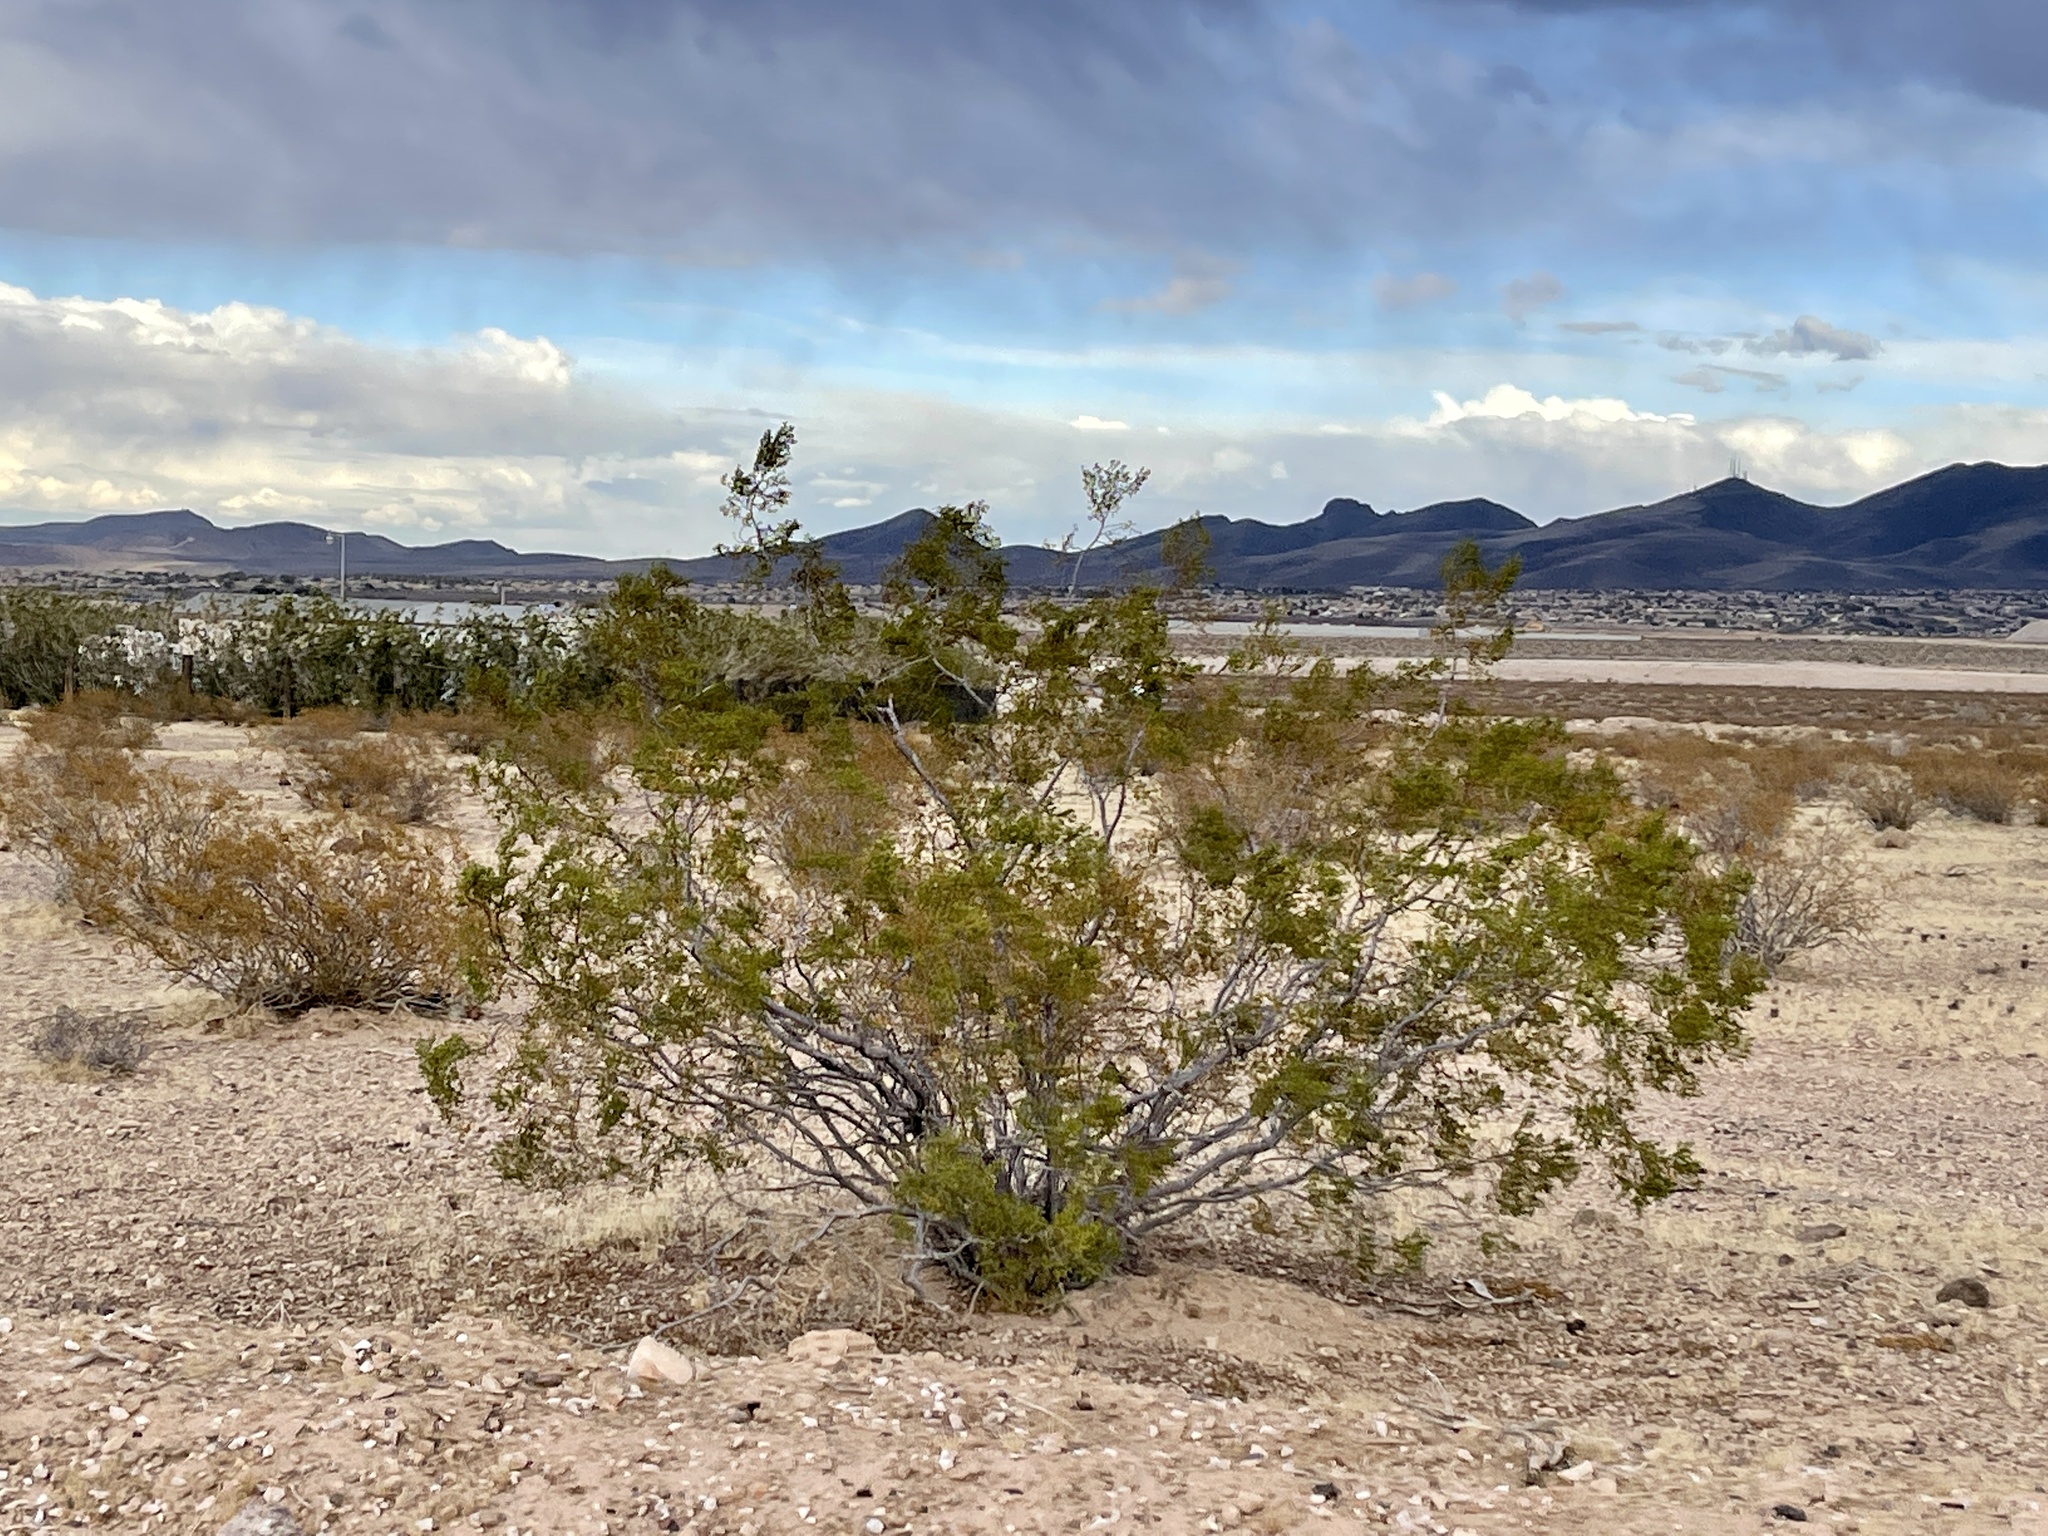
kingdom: Plantae
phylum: Tracheophyta
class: Magnoliopsida
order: Zygophyllales
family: Zygophyllaceae
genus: Larrea
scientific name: Larrea tridentata
